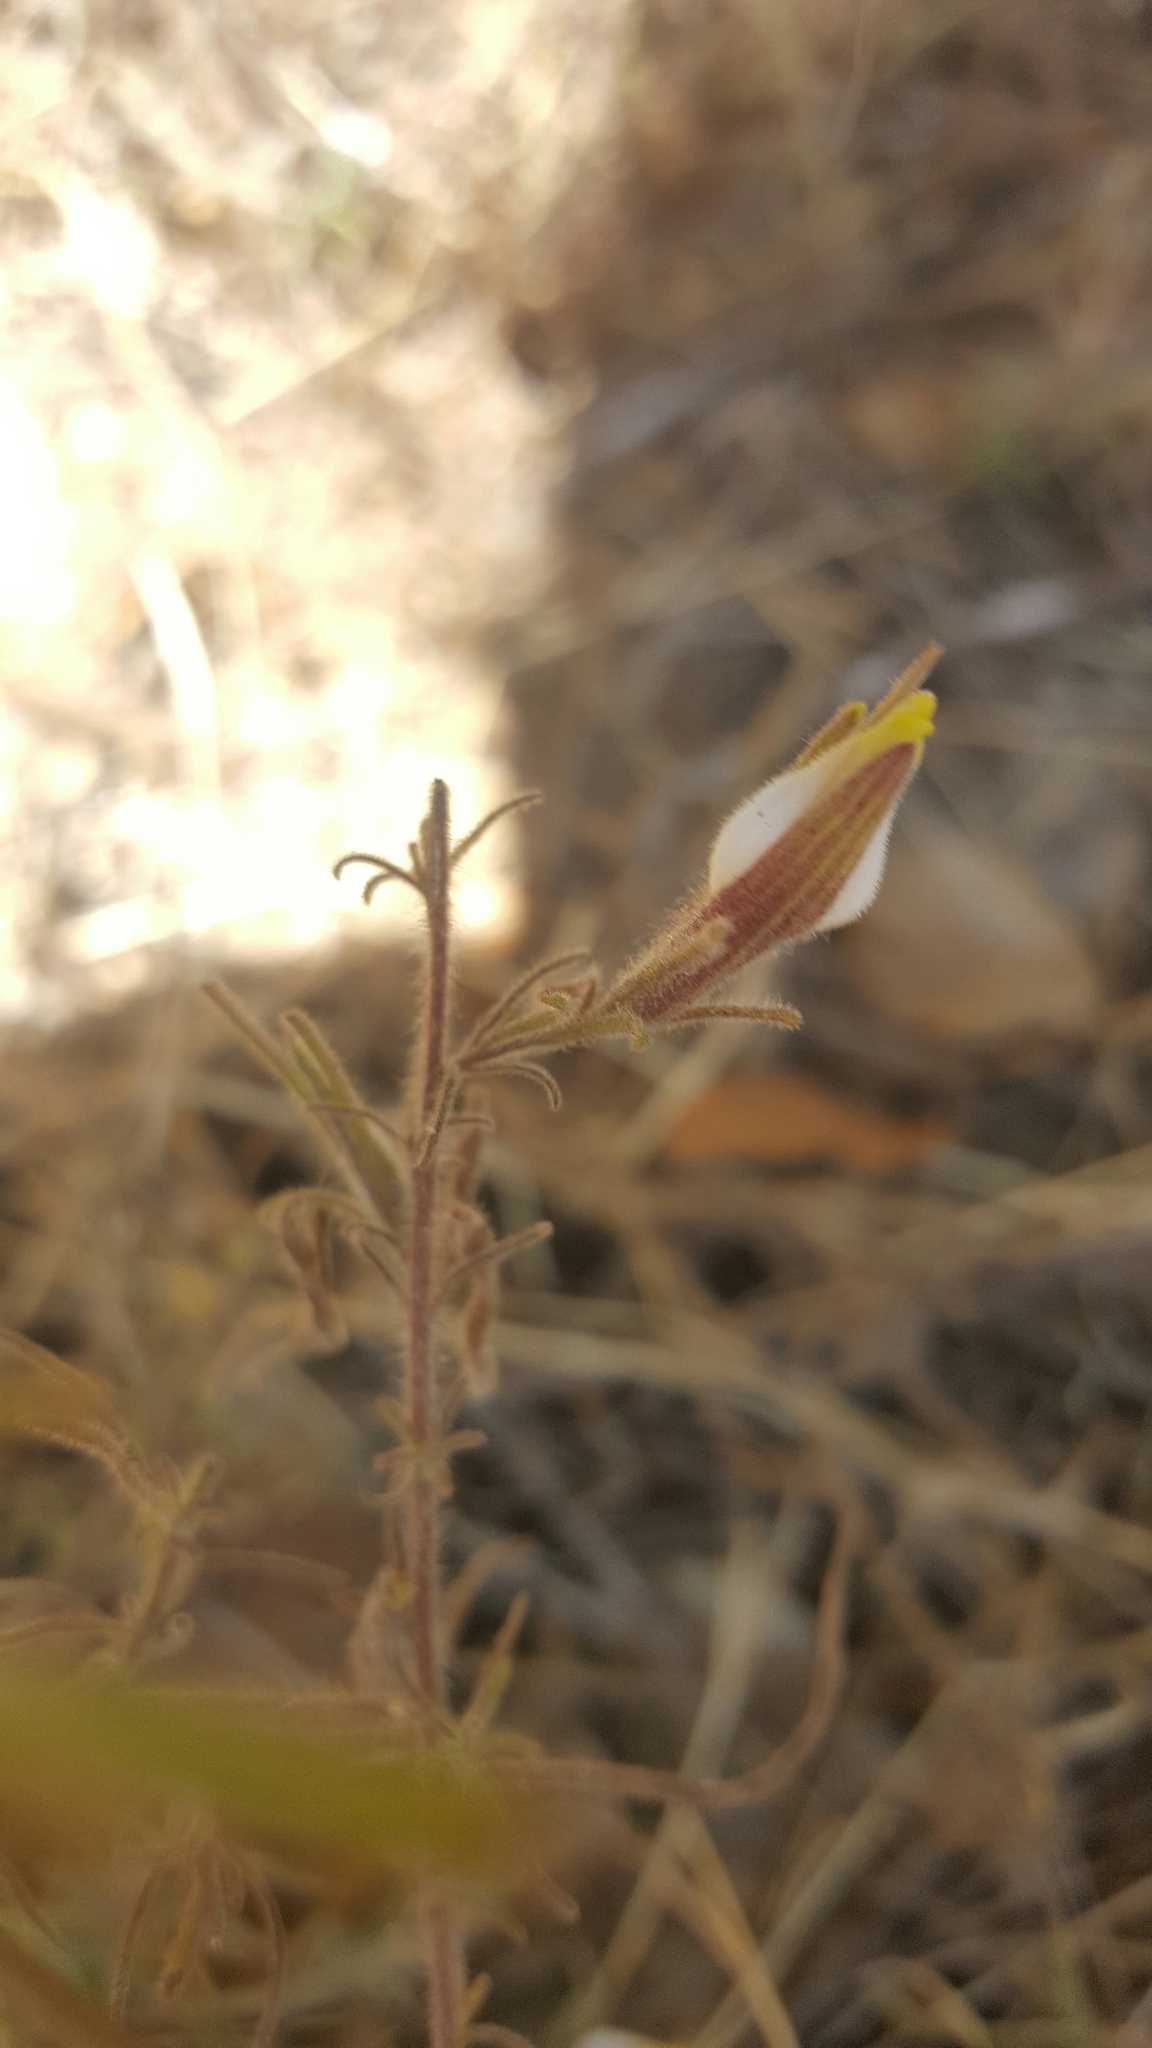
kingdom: Plantae
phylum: Tracheophyta
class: Magnoliopsida
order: Lamiales
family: Orobanchaceae
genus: Cordylanthus
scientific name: Cordylanthus pilosus
